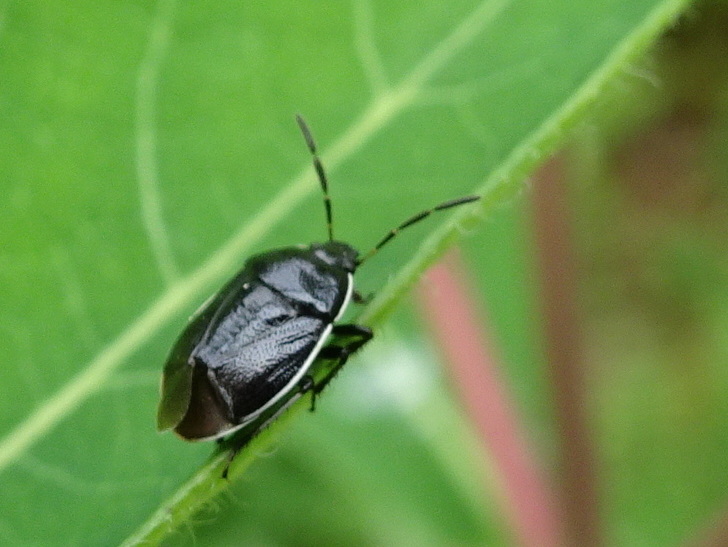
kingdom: Animalia
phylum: Arthropoda
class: Insecta
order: Hemiptera
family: Cydnidae
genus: Sehirus
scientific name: Sehirus cinctus
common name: White-margined burrower bug
